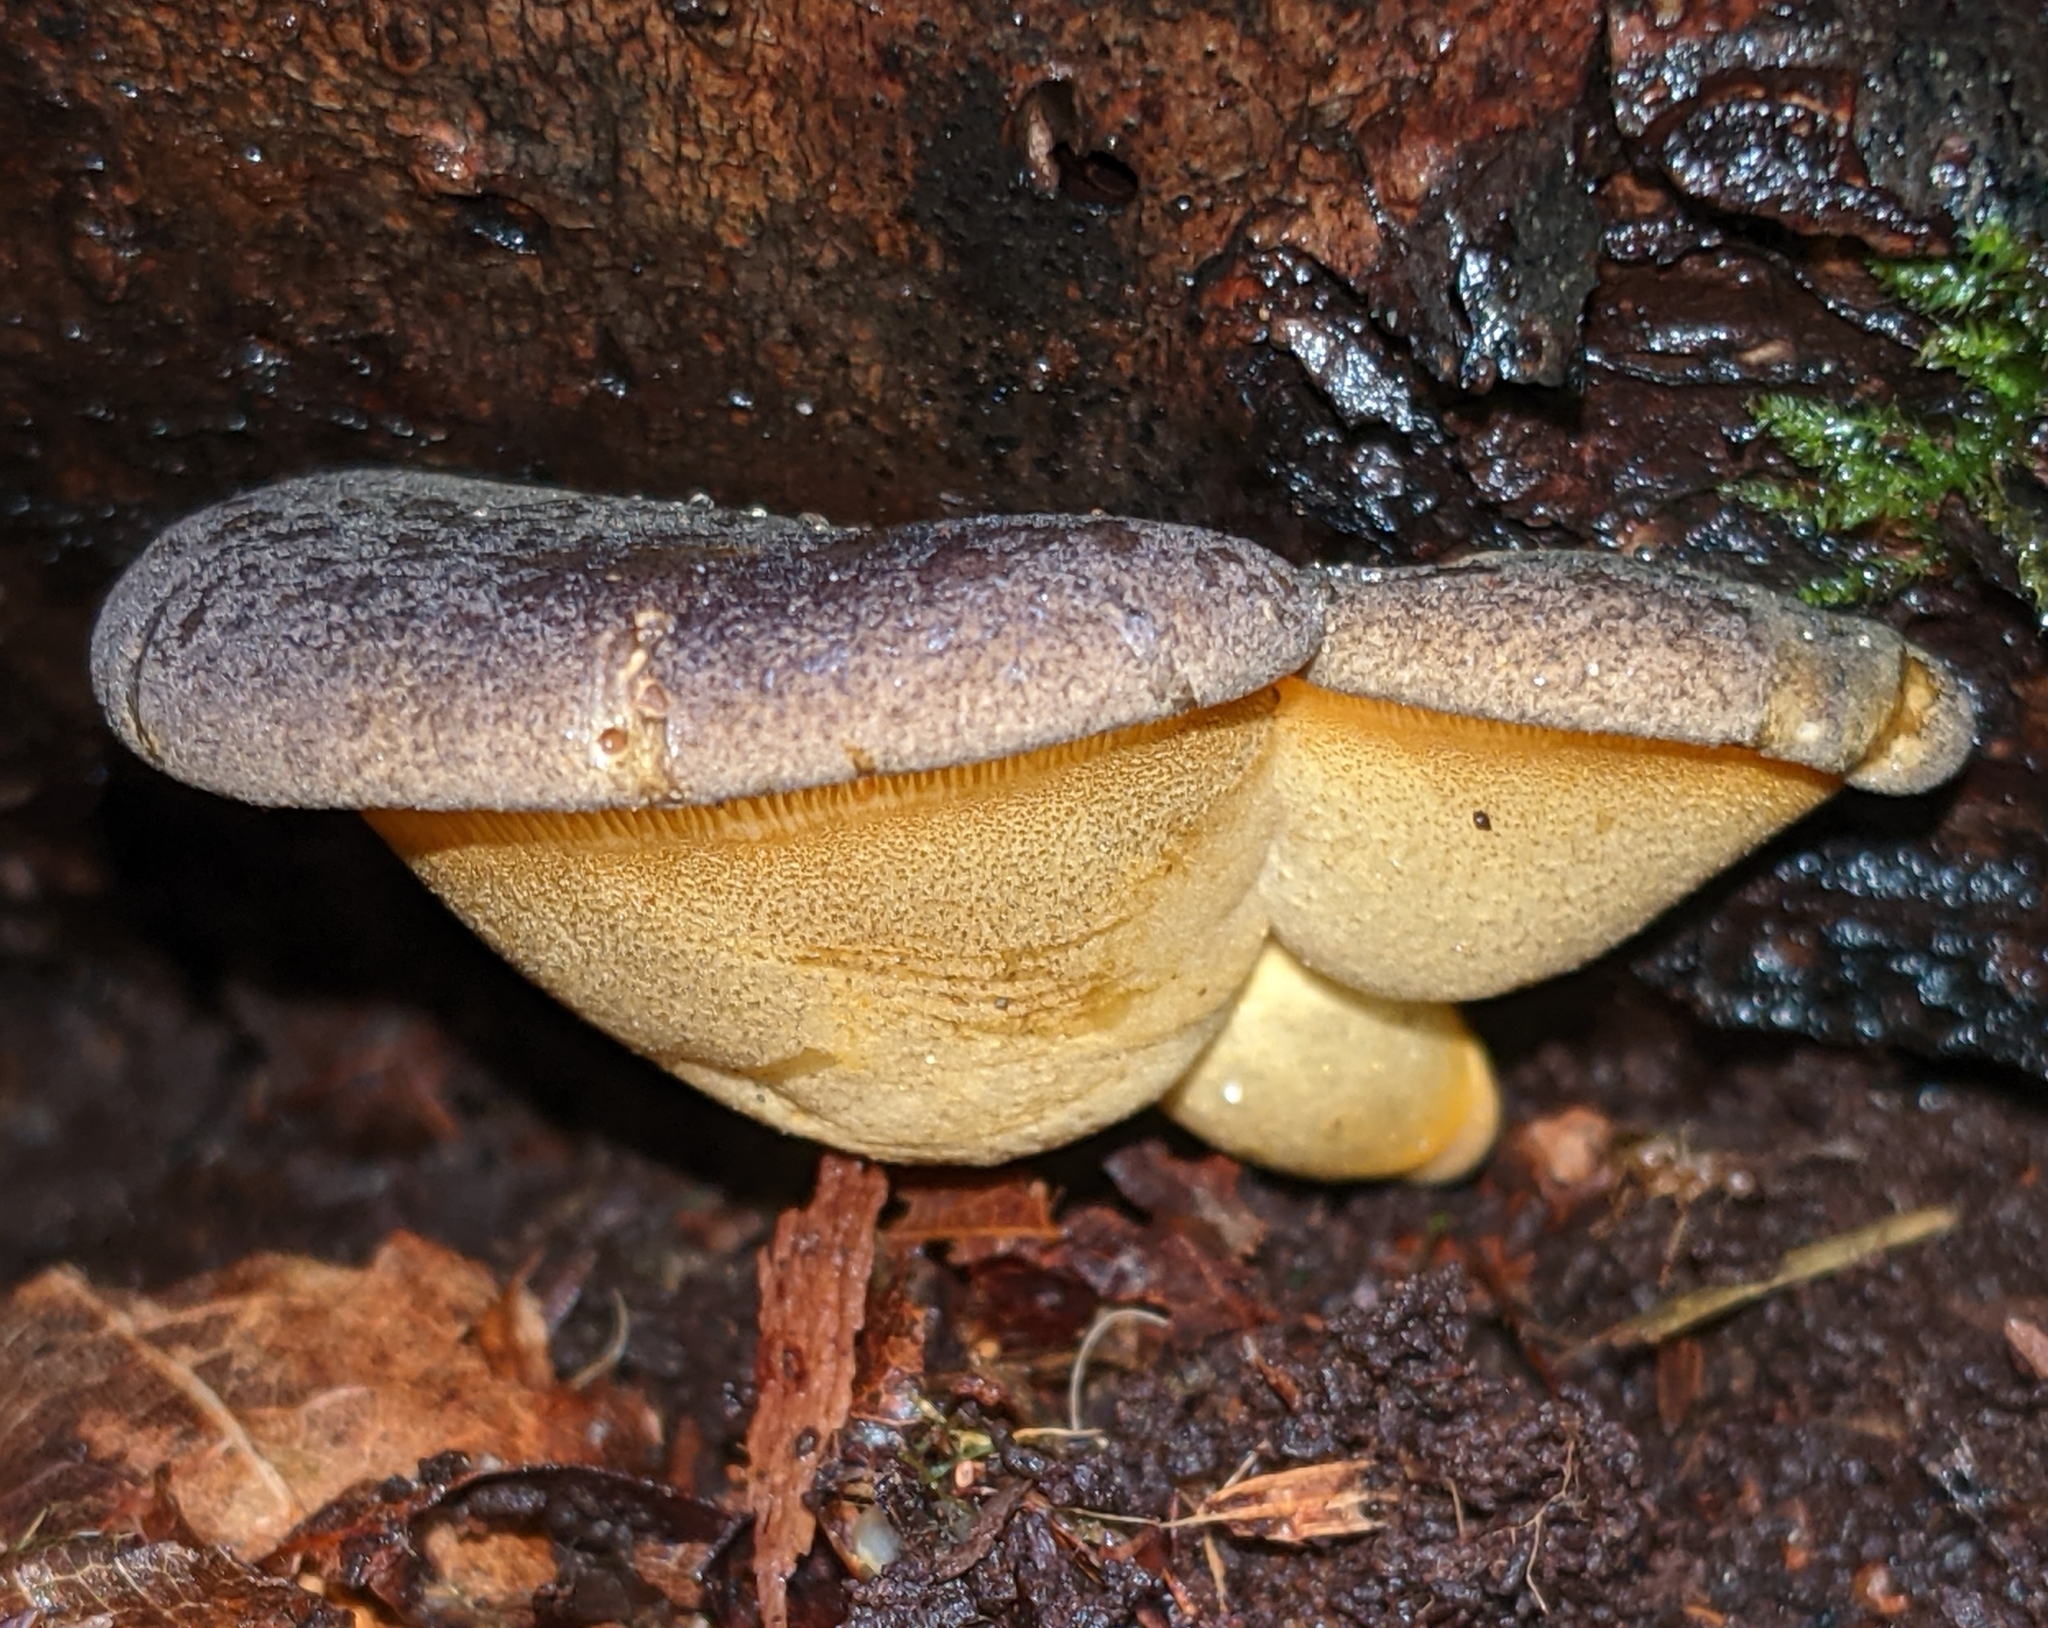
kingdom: Fungi
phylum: Basidiomycota
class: Agaricomycetes
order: Agaricales
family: Sarcomyxaceae
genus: Sarcomyxa
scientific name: Sarcomyxa serotina
